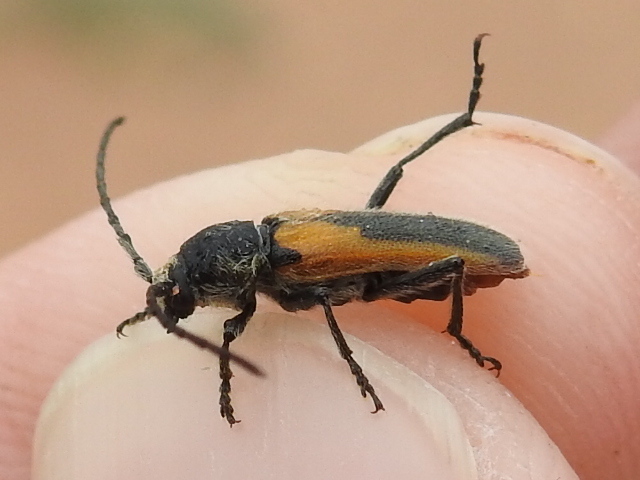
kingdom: Animalia
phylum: Arthropoda
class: Insecta
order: Coleoptera
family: Cerambycidae
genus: Crossidius
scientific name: Crossidius pulchellus
